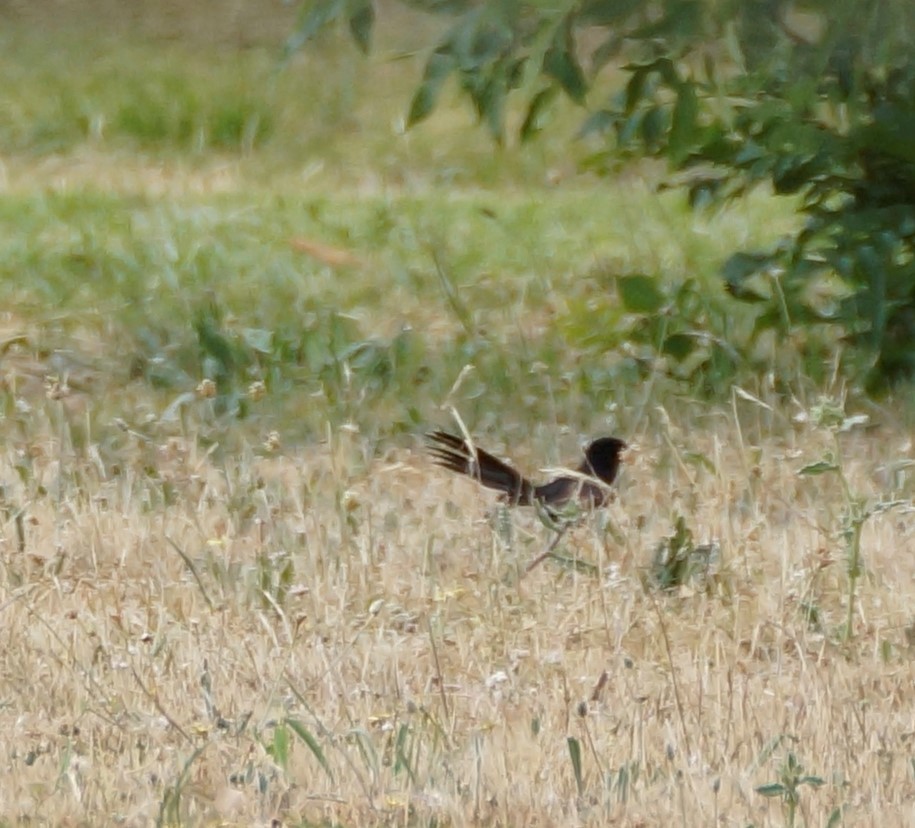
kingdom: Animalia
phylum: Chordata
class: Aves
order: Passeriformes
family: Rhipiduridae
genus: Rhipidura
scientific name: Rhipidura leucophrys
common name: Willie wagtail
